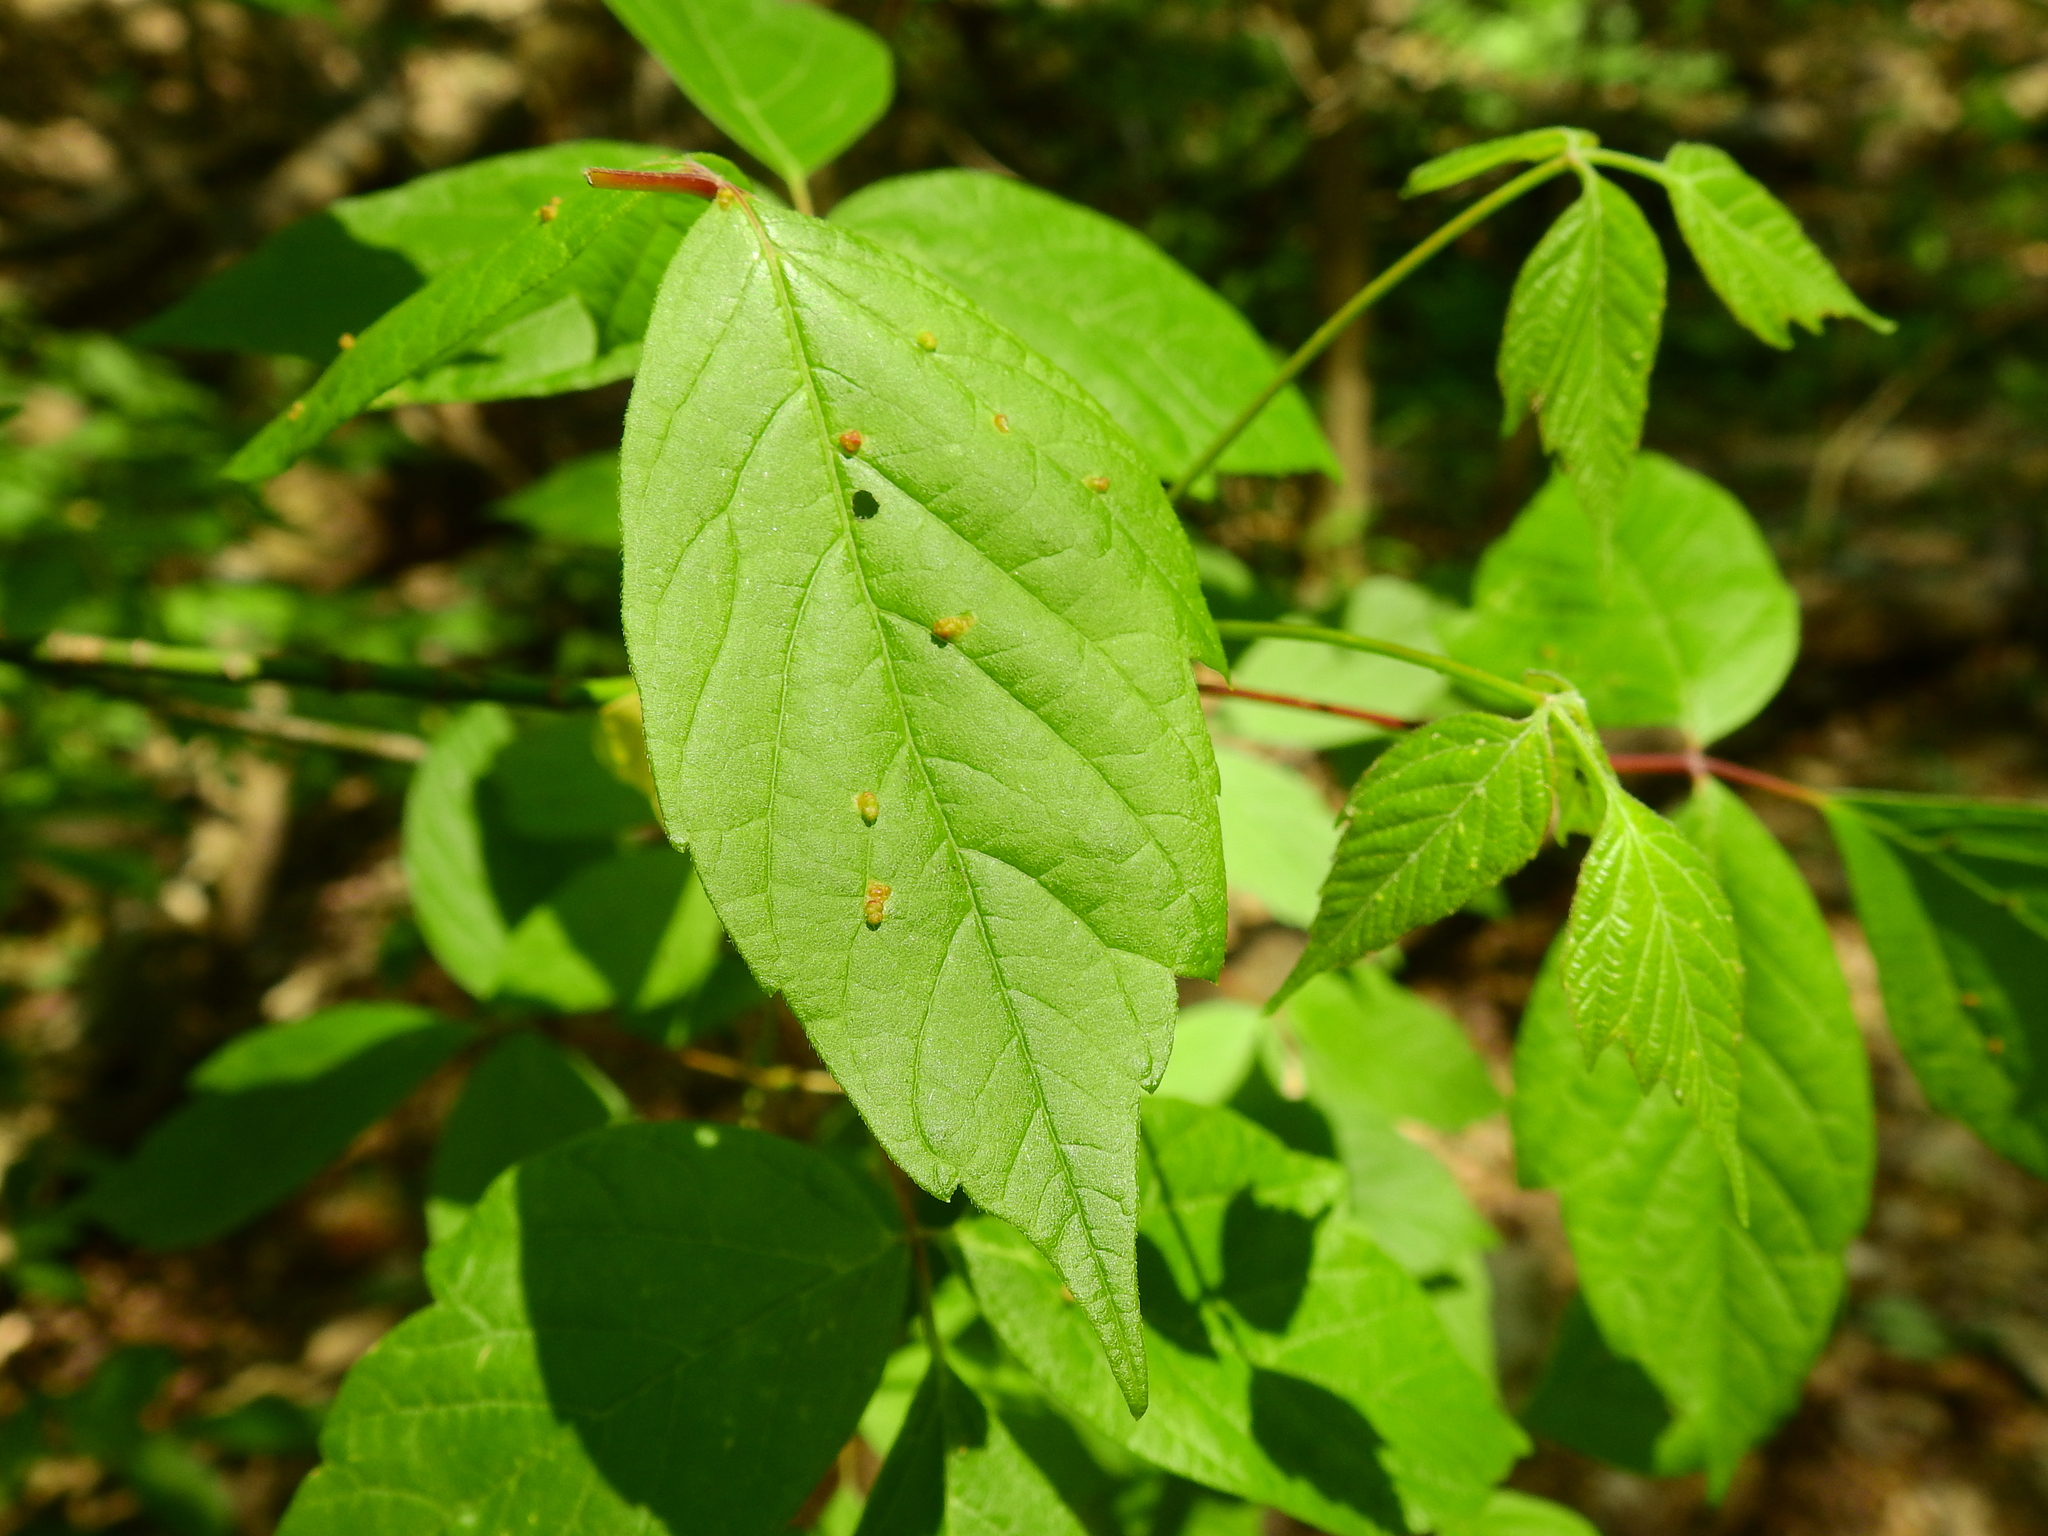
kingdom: Animalia
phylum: Arthropoda
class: Arachnida
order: Trombidiformes
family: Eriophyidae
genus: Aceria
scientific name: Aceria
